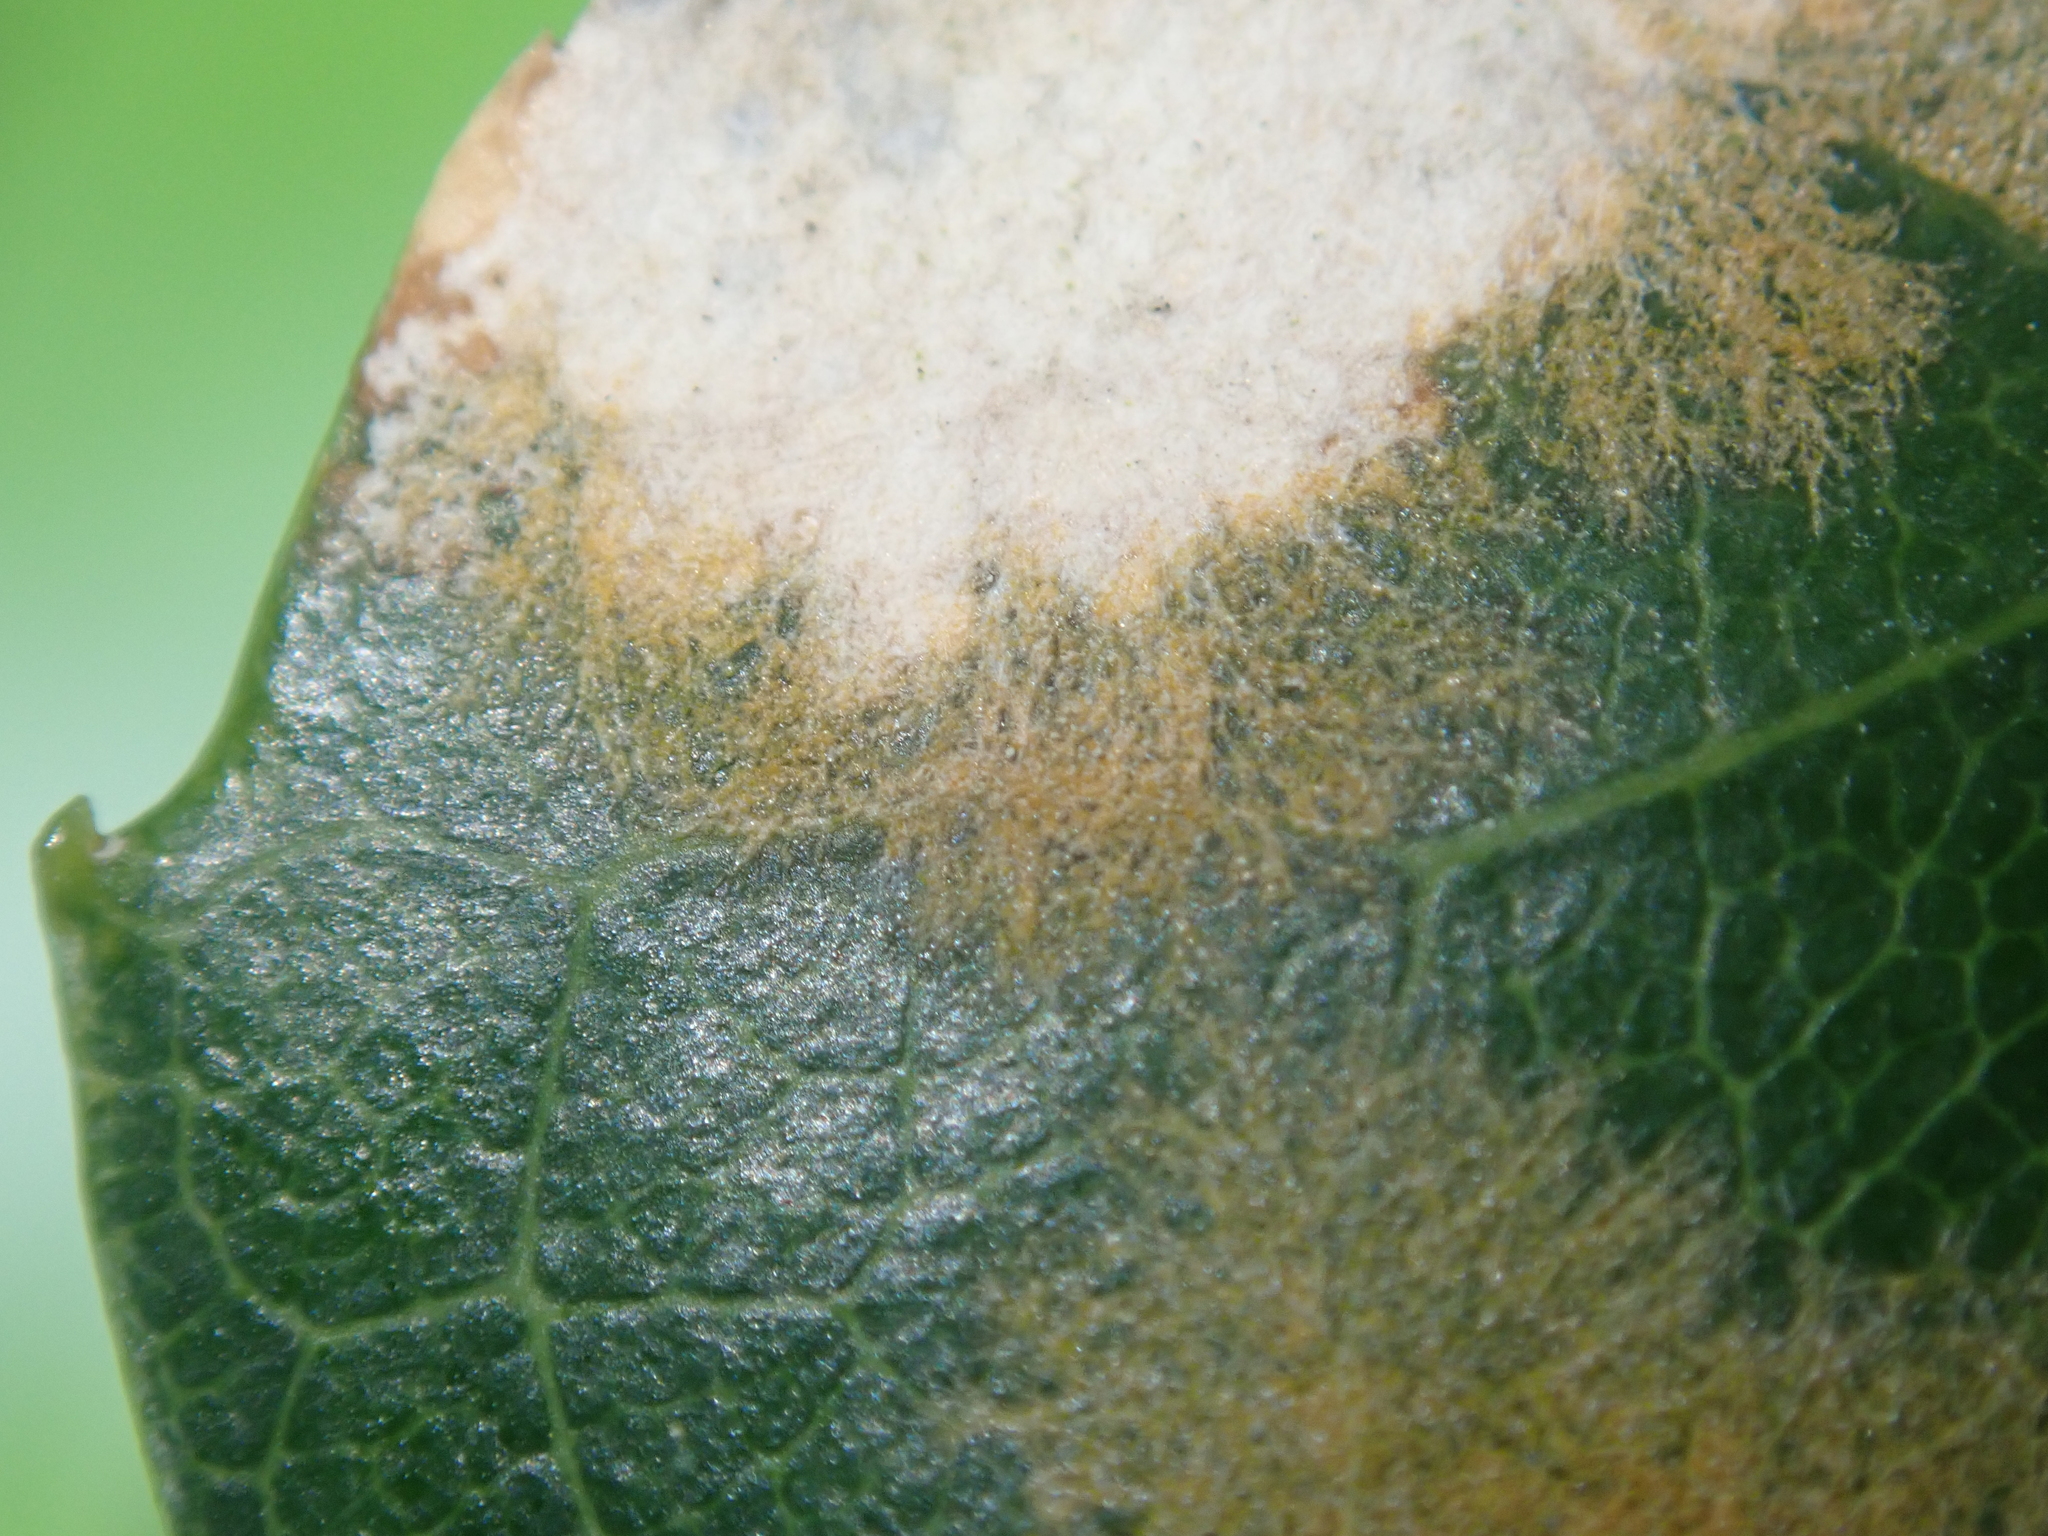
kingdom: Plantae
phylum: Chlorophyta
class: Ulvophyceae
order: Trentepohliales
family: Trentepohliaceae
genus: Cephaleuros
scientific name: Cephaleuros
